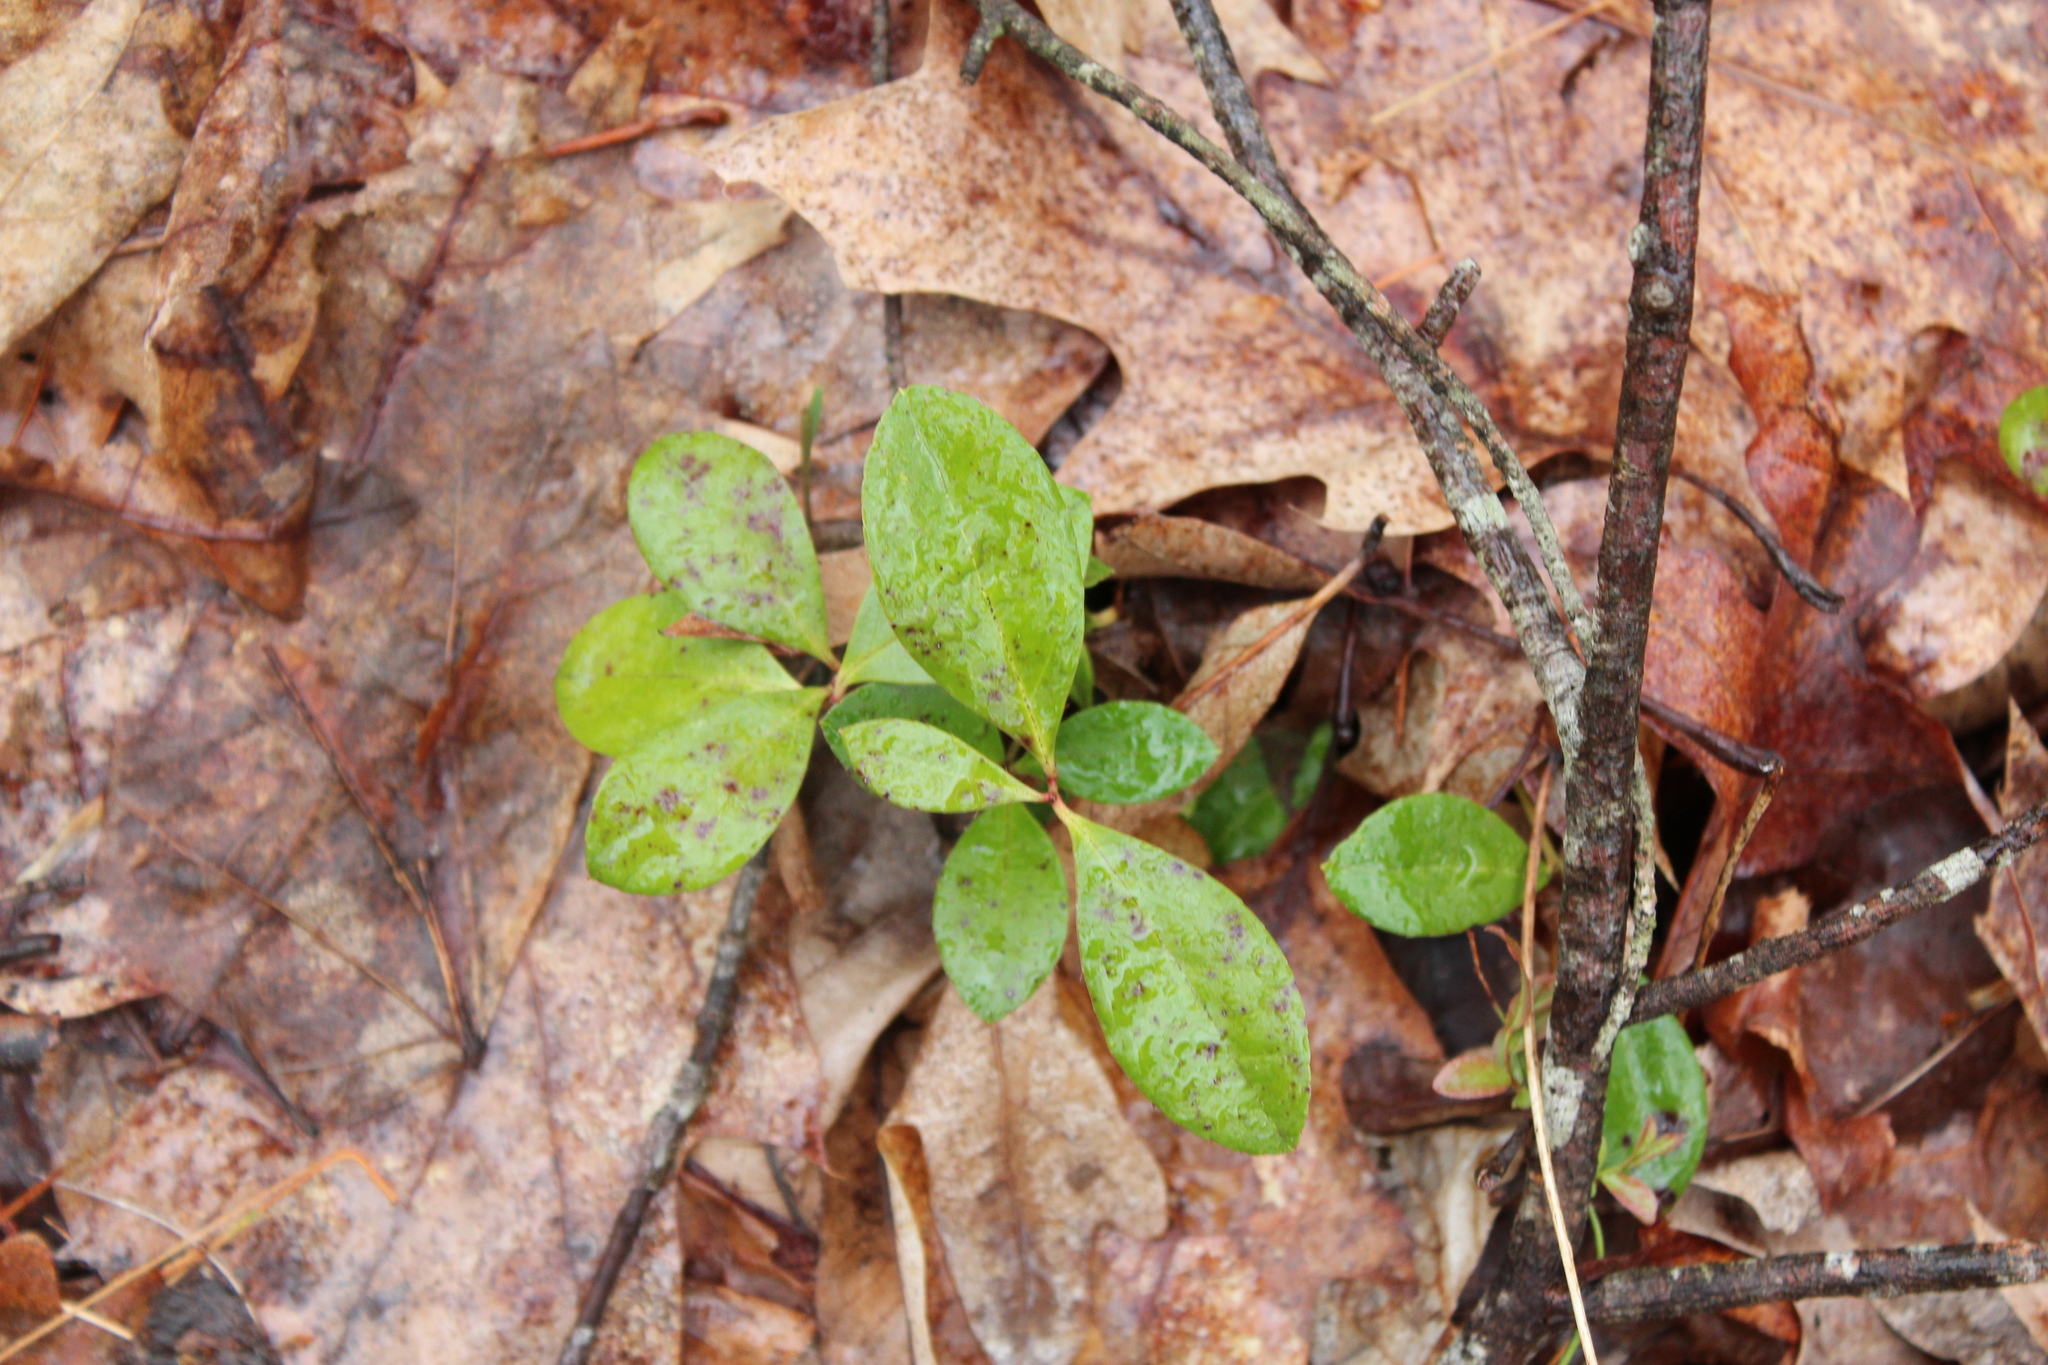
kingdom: Plantae
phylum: Tracheophyta
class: Magnoliopsida
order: Ericales
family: Ericaceae
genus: Gaultheria
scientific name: Gaultheria procumbens
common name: Checkerberry
